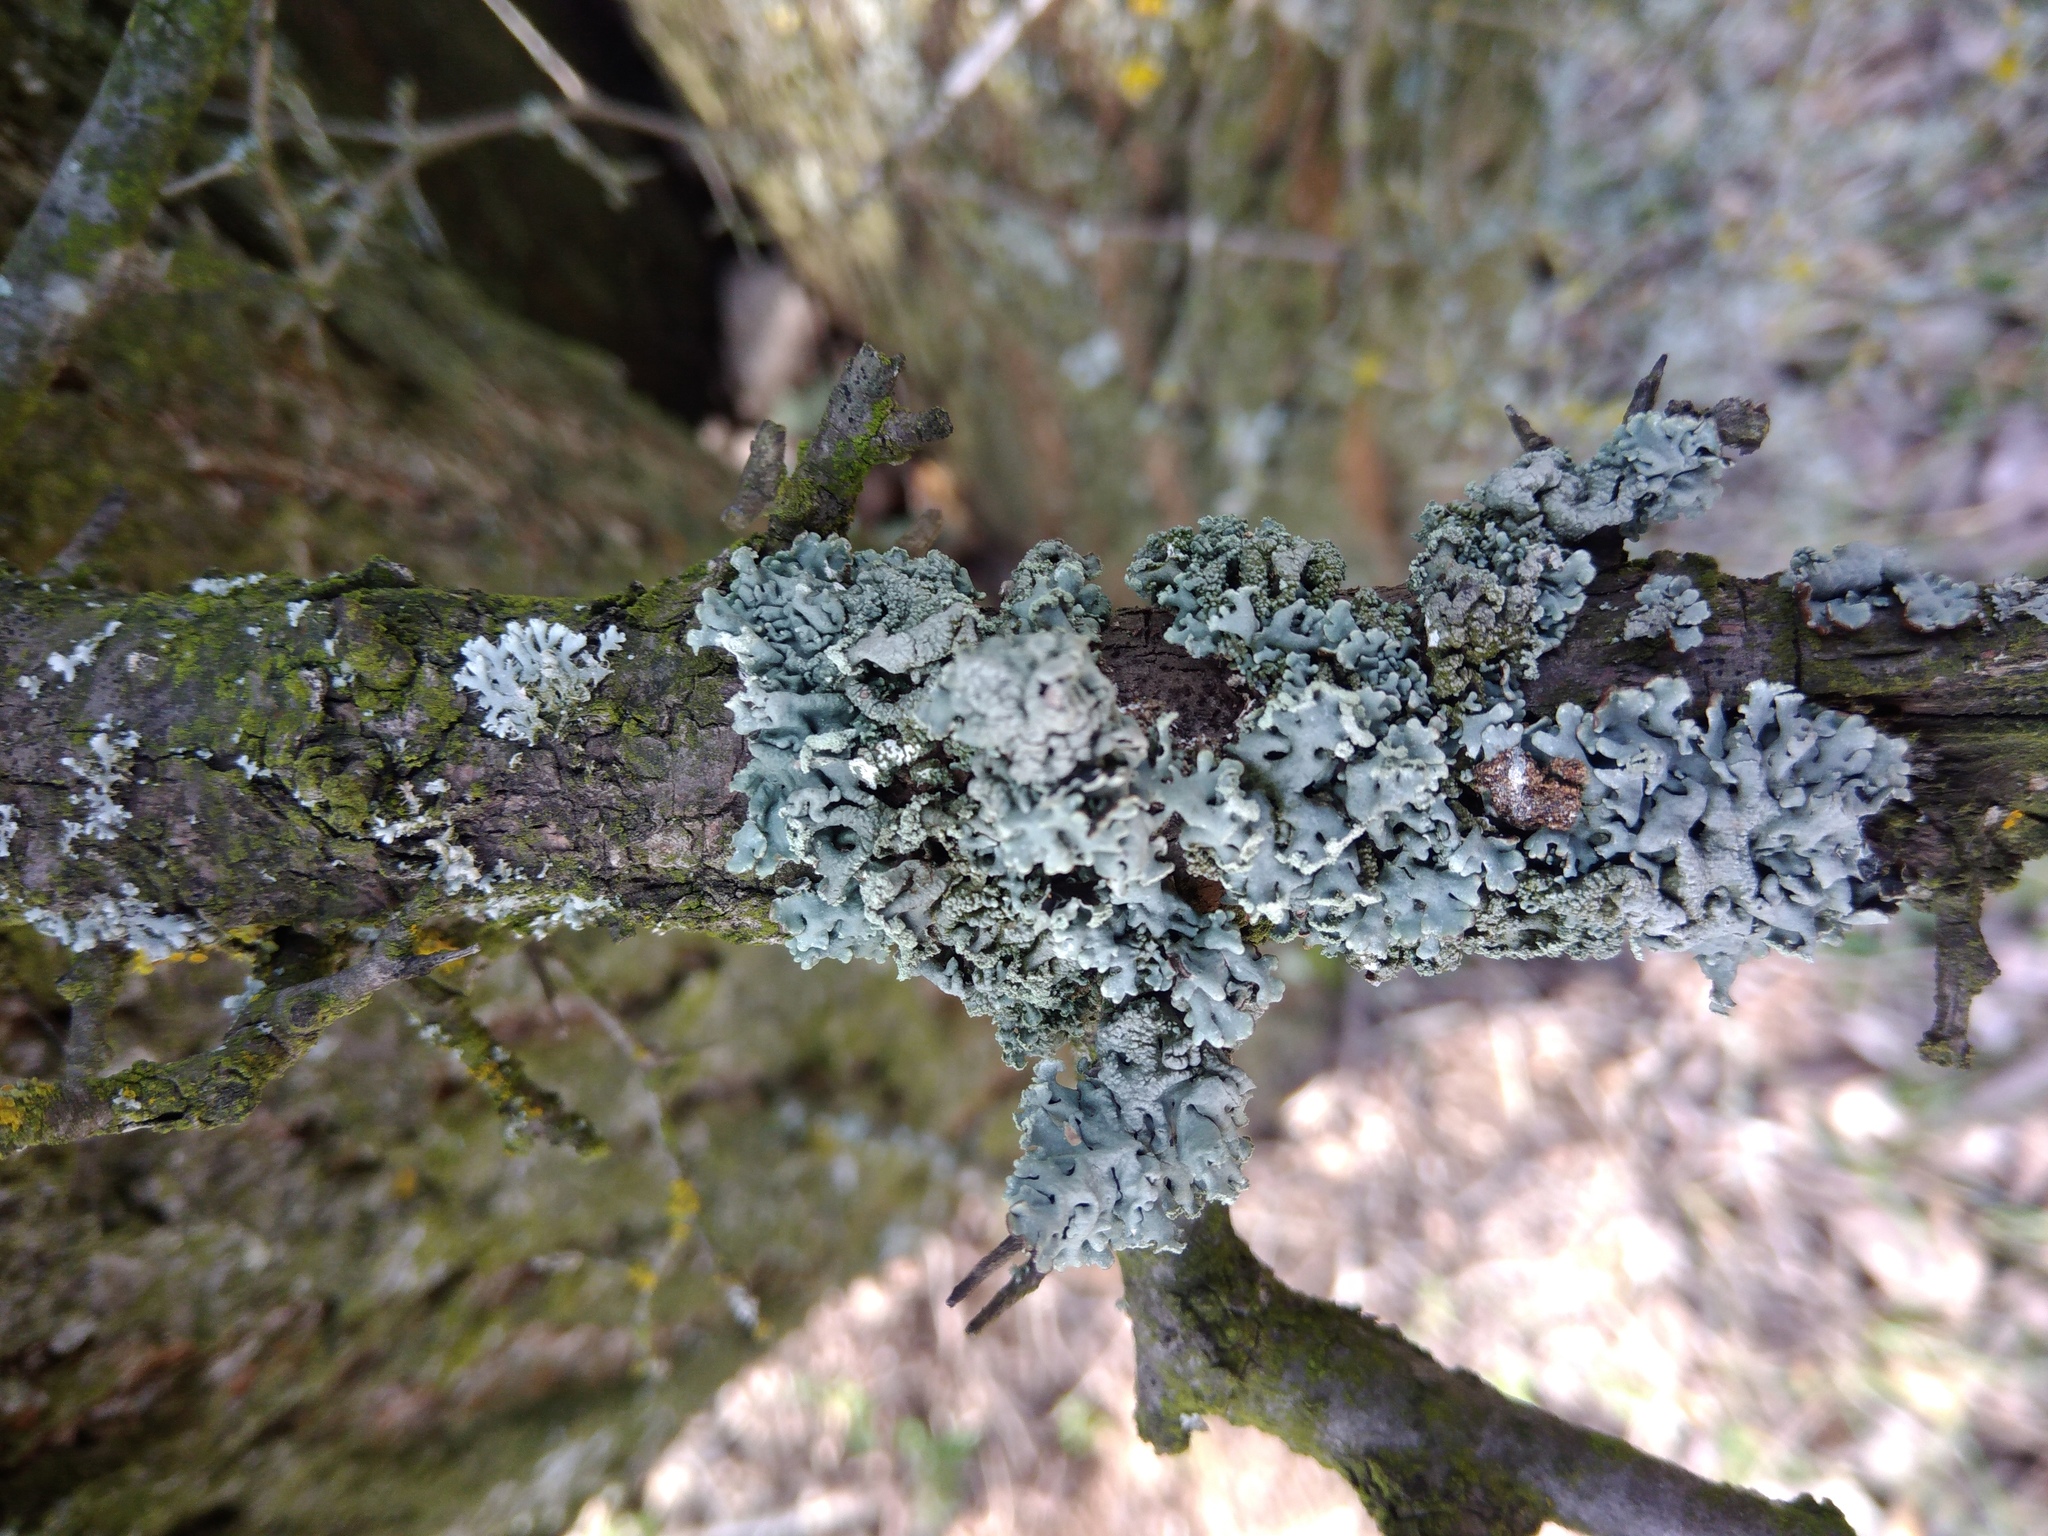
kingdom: Fungi
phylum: Ascomycota
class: Lecanoromycetes
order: Lecanorales
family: Parmeliaceae
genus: Hypogymnia
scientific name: Hypogymnia physodes
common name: Dark crottle
